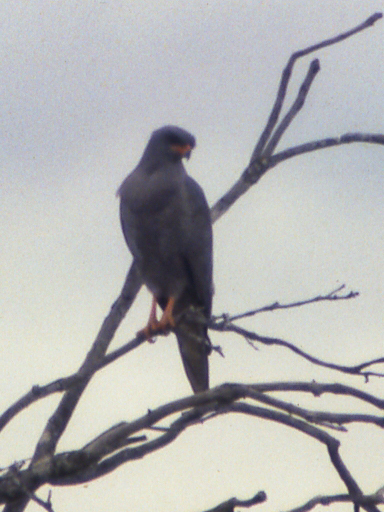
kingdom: Animalia
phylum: Chordata
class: Aves
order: Accipitriformes
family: Accipitridae
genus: Melierax
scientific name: Melierax metabates
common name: Dark chanting-goshawk
